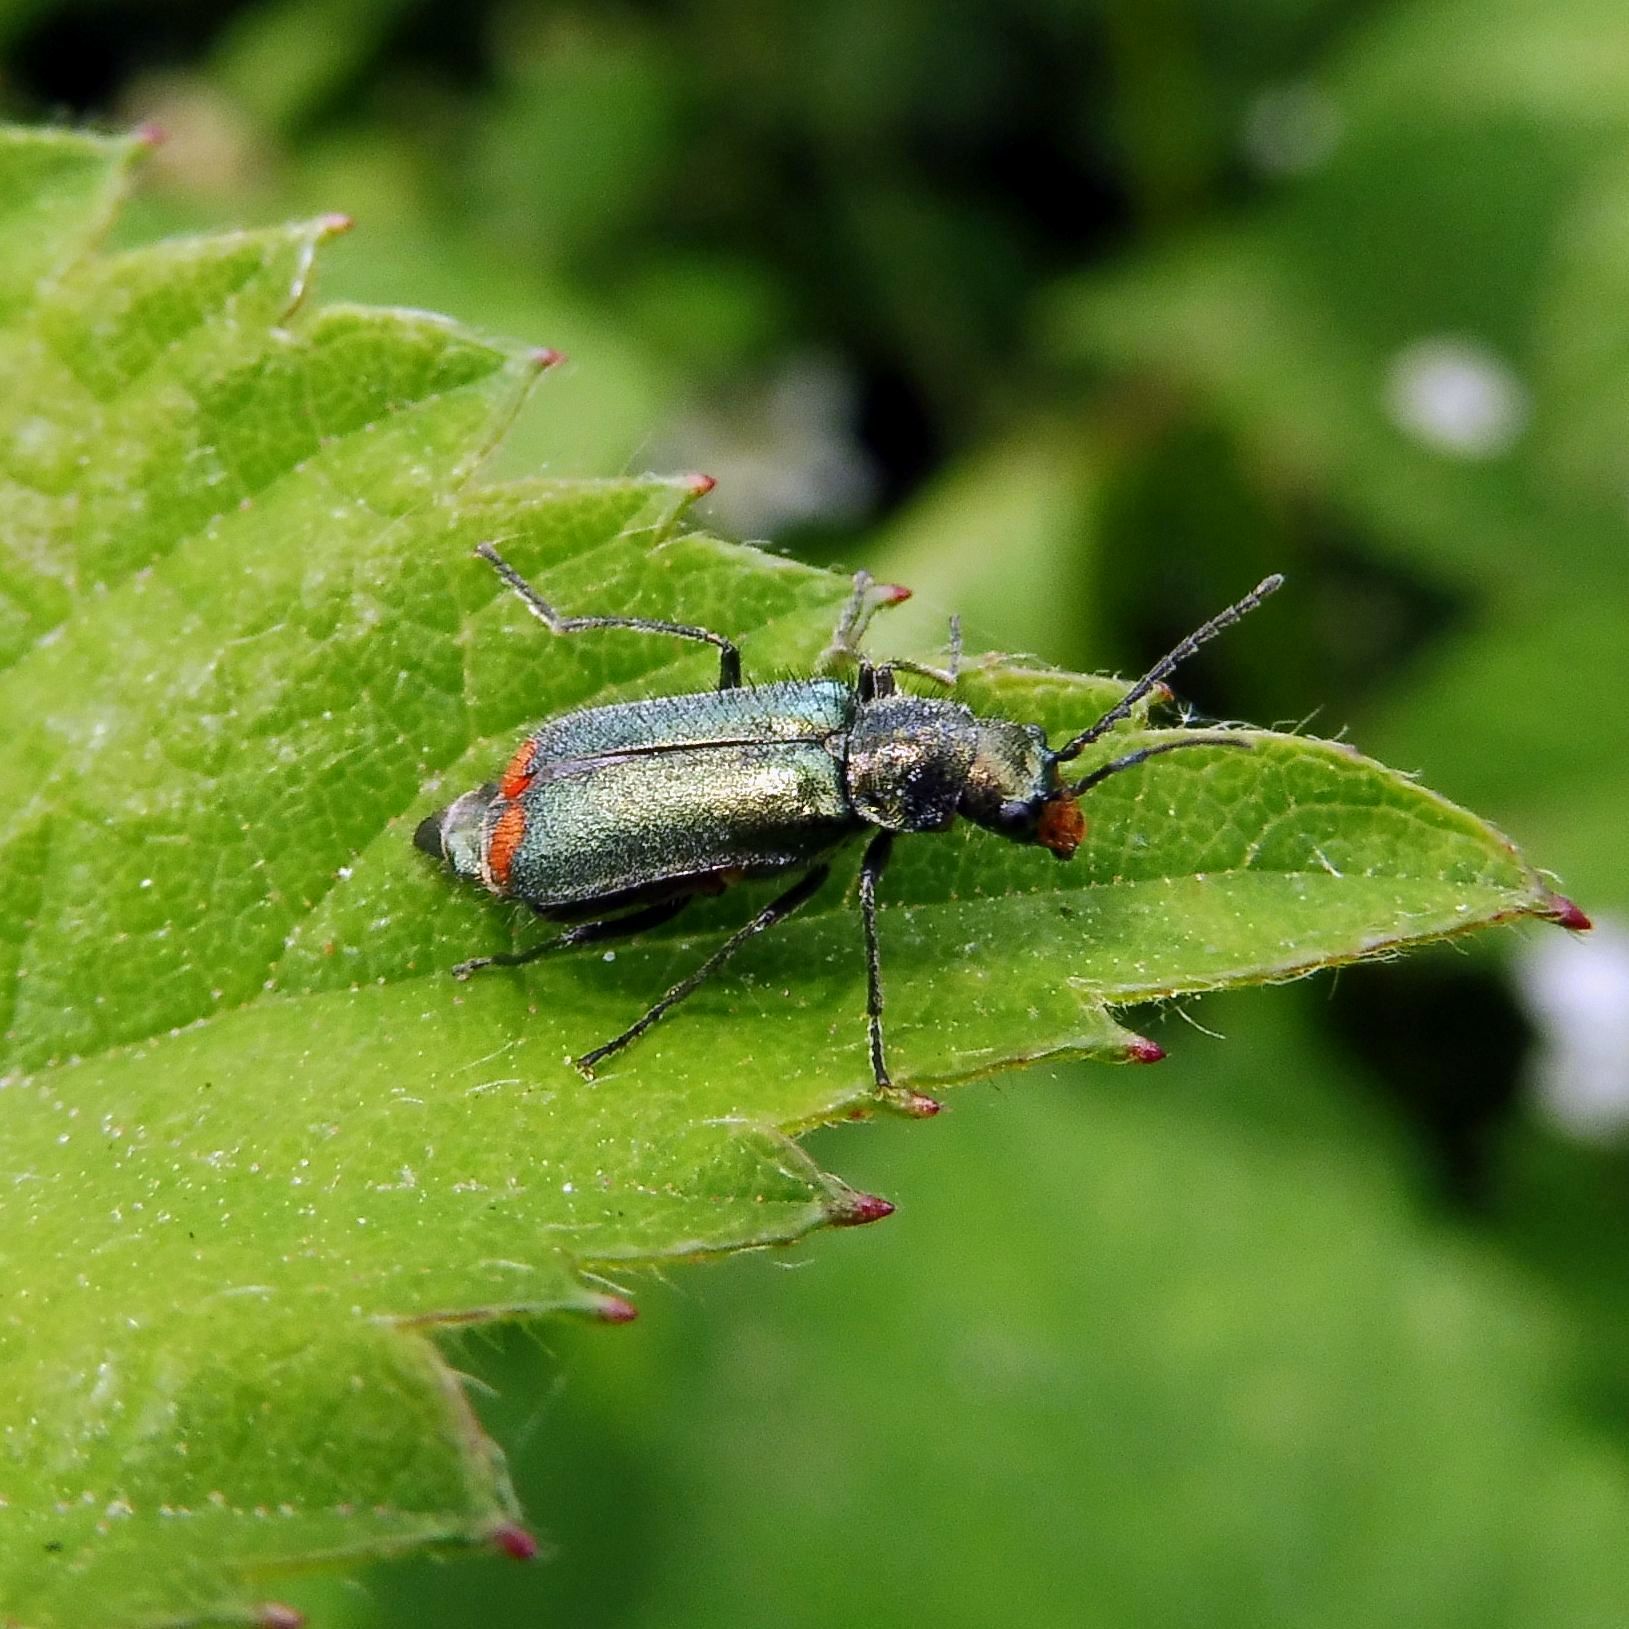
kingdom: Animalia
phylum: Arthropoda
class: Insecta
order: Coleoptera
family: Melyridae
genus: Malachius
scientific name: Malachius bipustulatus
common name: Malachite beetle
